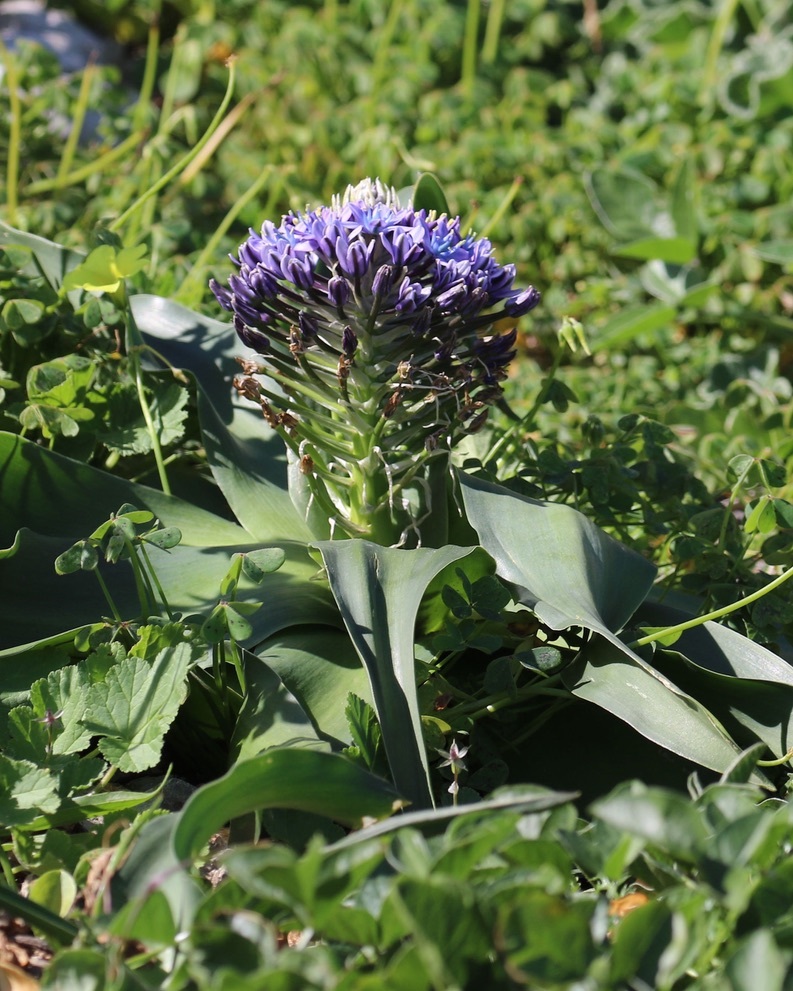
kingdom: Plantae
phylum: Tracheophyta
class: Liliopsida
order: Asparagales
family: Asparagaceae
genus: Scilla
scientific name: Scilla peruviana
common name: Portuguese squill
